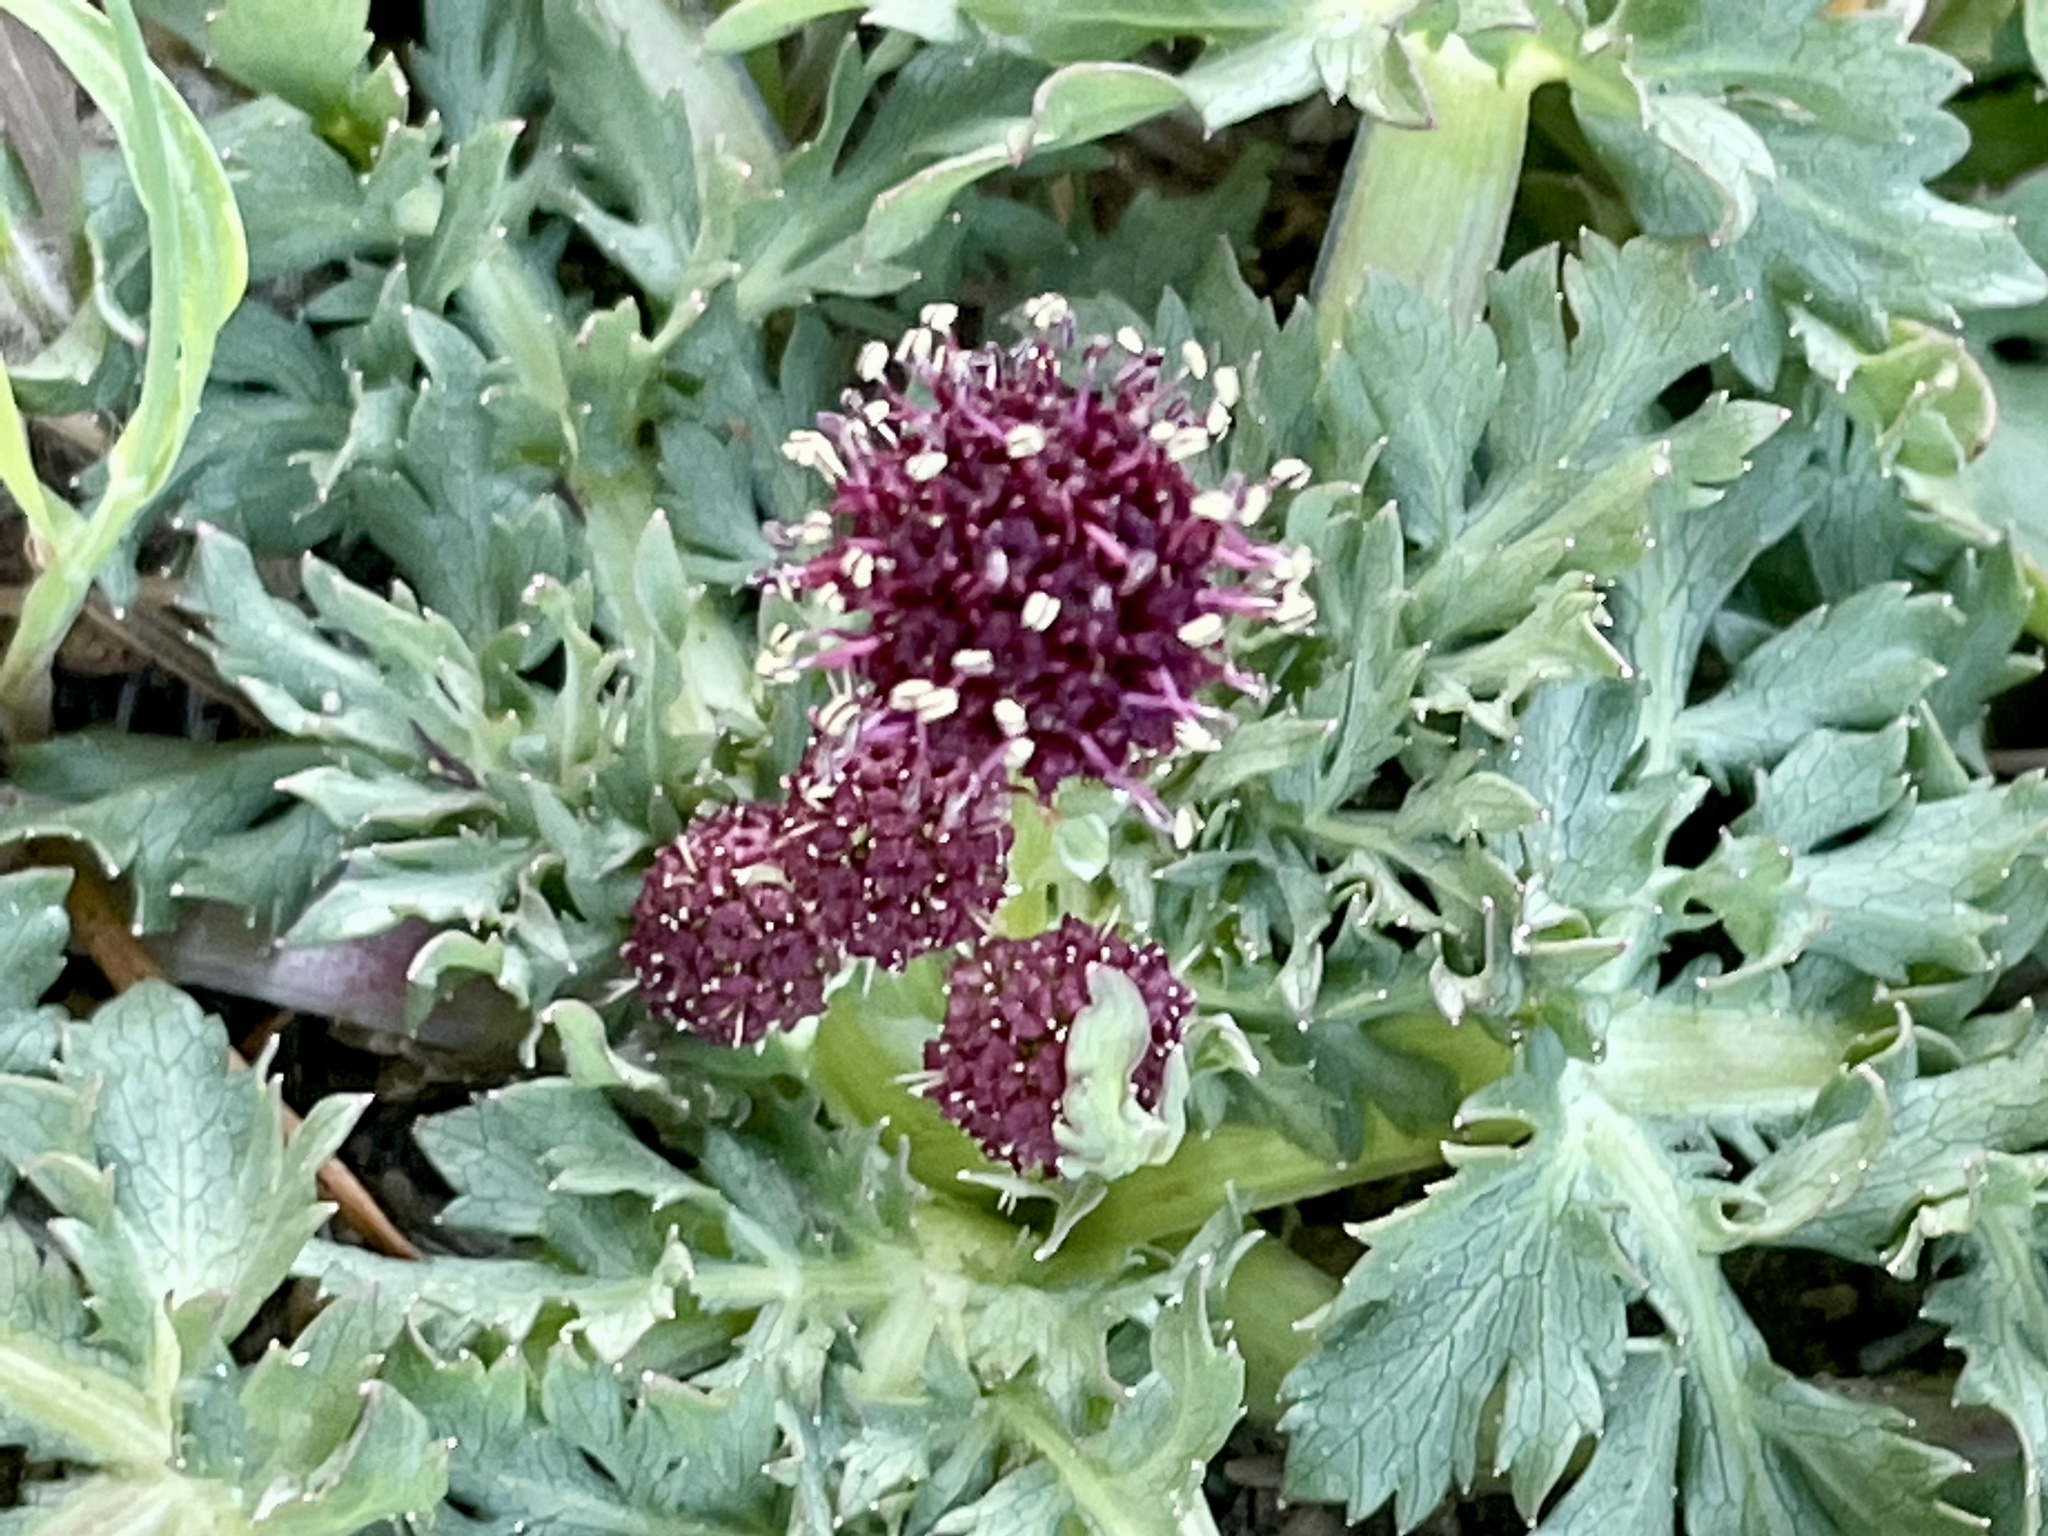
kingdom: Plantae
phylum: Tracheophyta
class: Magnoliopsida
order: Apiales
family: Apiaceae
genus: Sanicula
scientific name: Sanicula bipinnatifida
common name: Shoe-buttons
